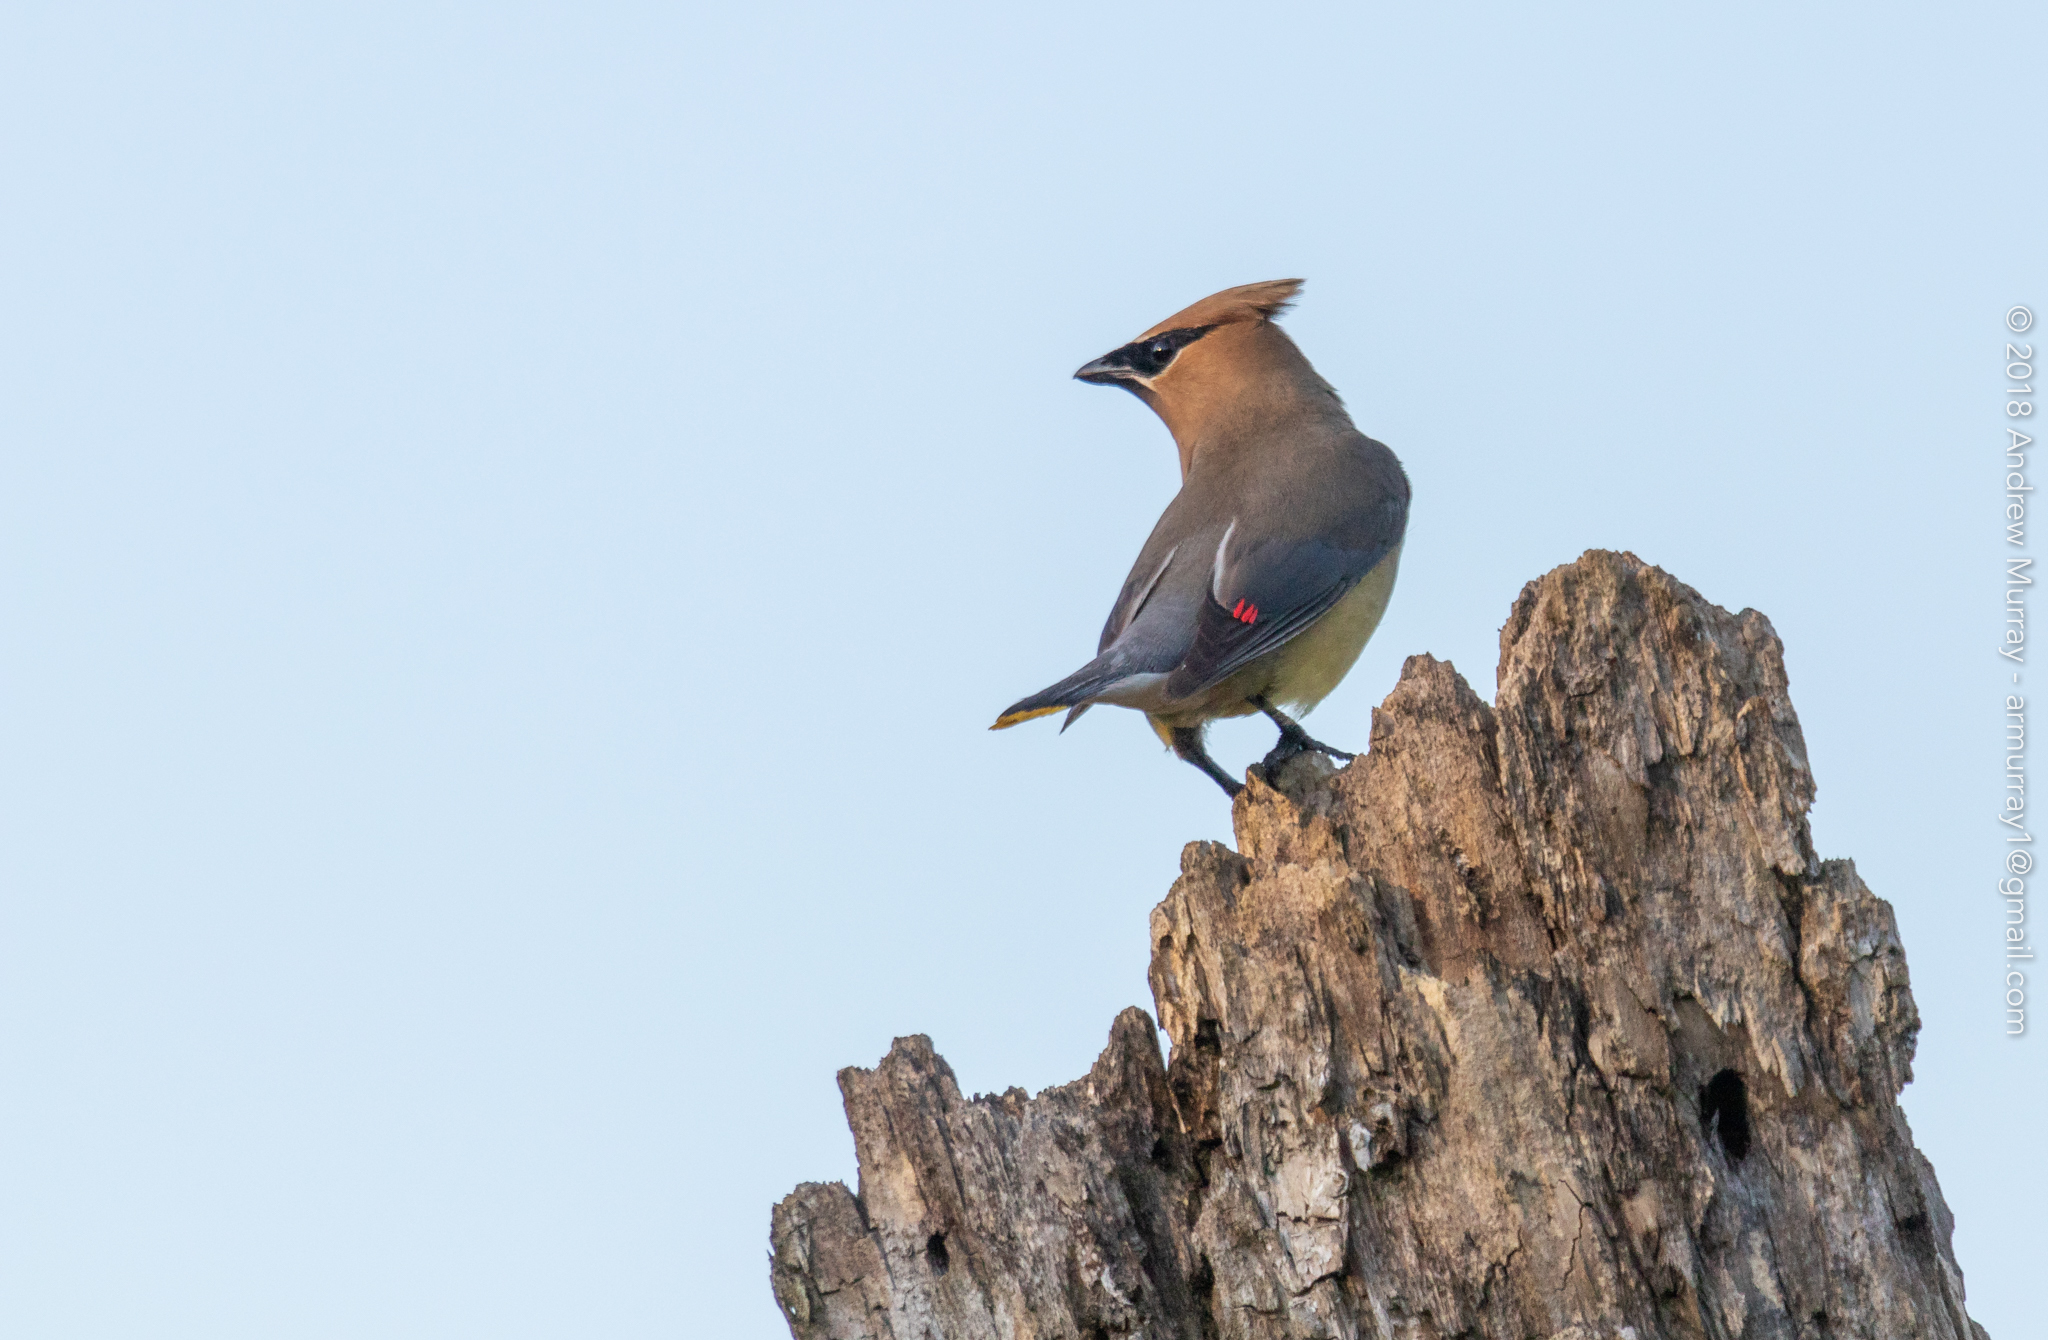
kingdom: Animalia
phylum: Chordata
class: Aves
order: Passeriformes
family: Bombycillidae
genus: Bombycilla
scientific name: Bombycilla cedrorum
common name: Cedar waxwing
